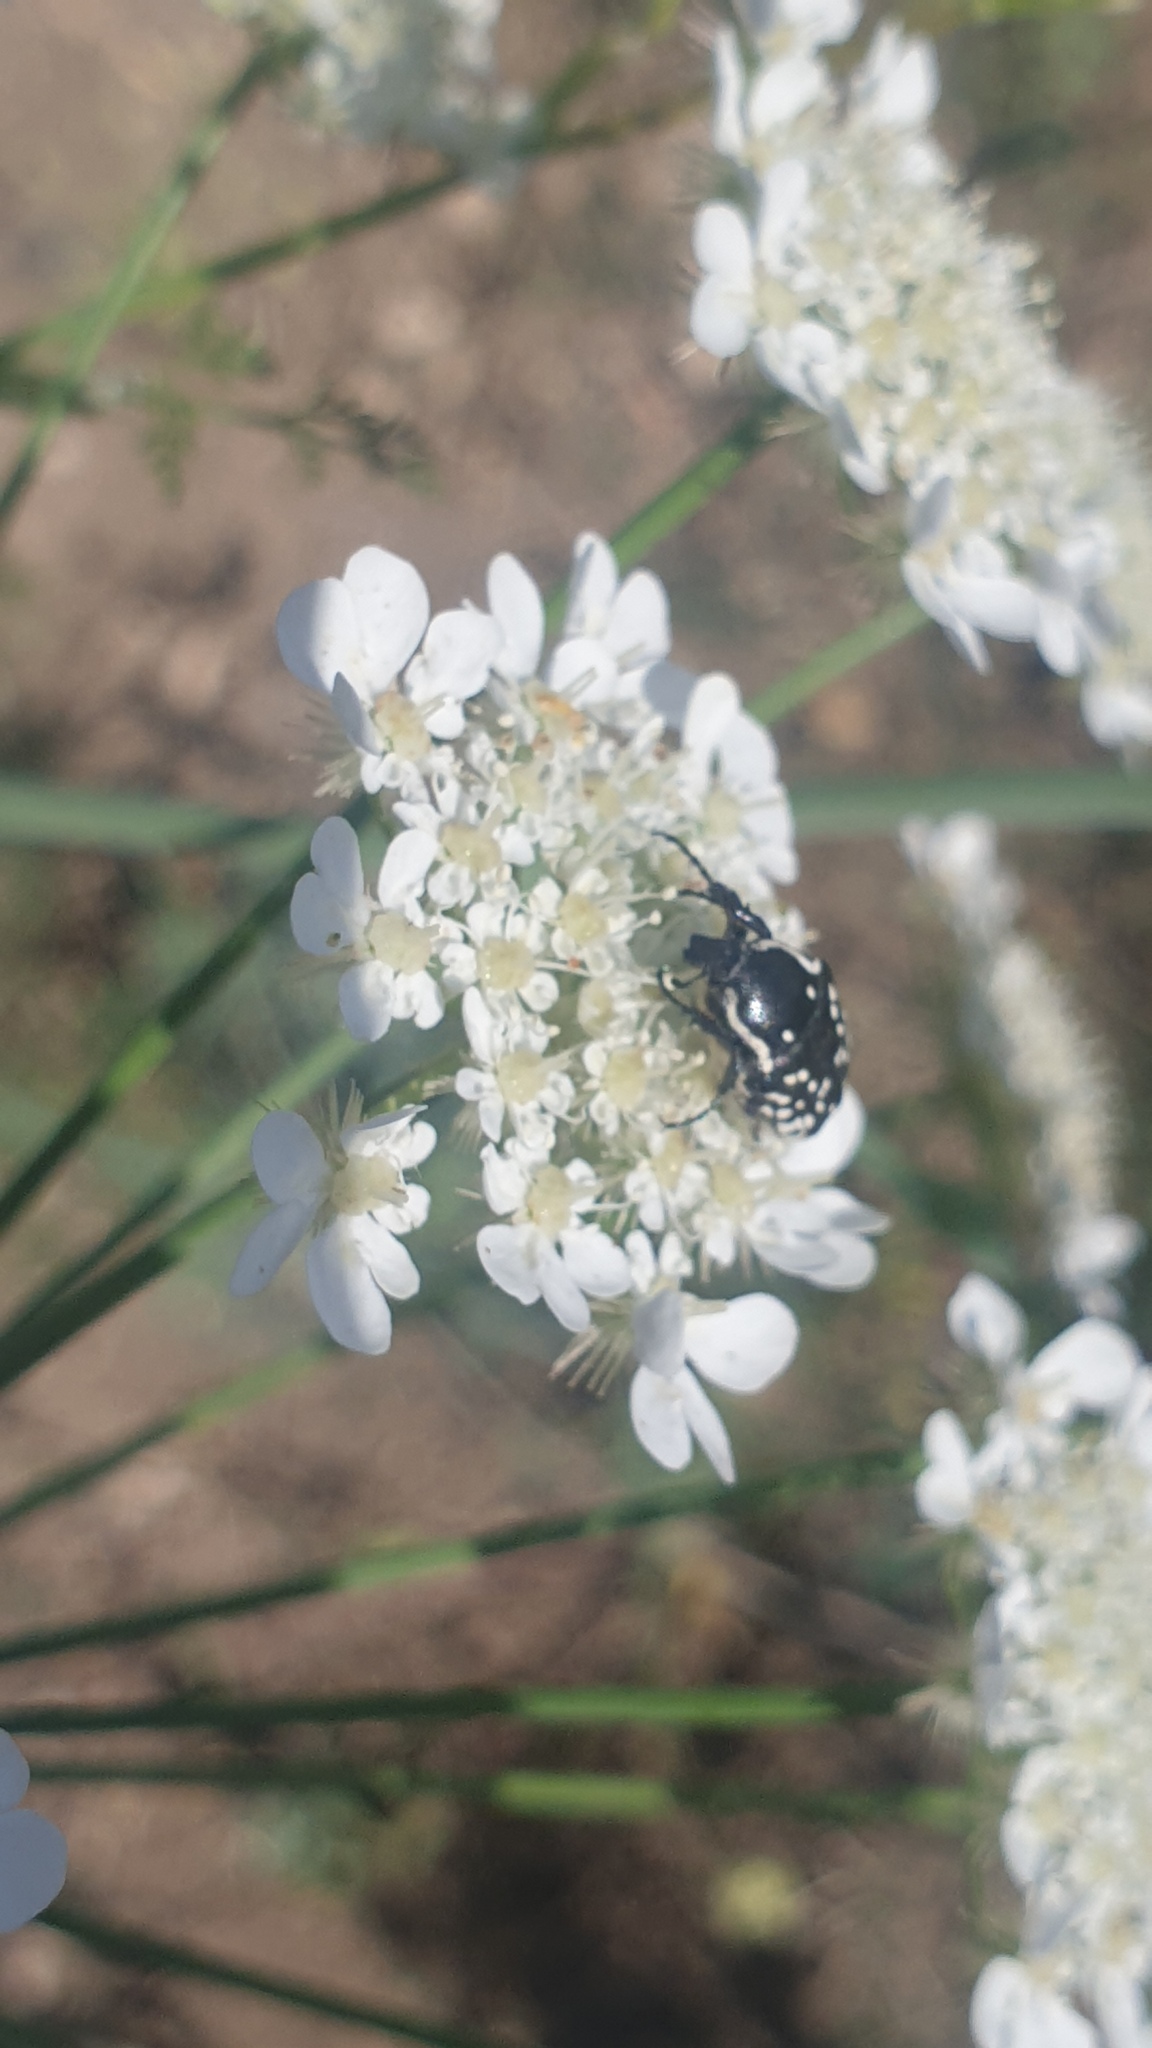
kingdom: Animalia
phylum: Arthropoda
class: Insecta
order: Coleoptera
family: Scarabaeidae
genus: Oxythyrea
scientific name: Oxythyrea cinctella
